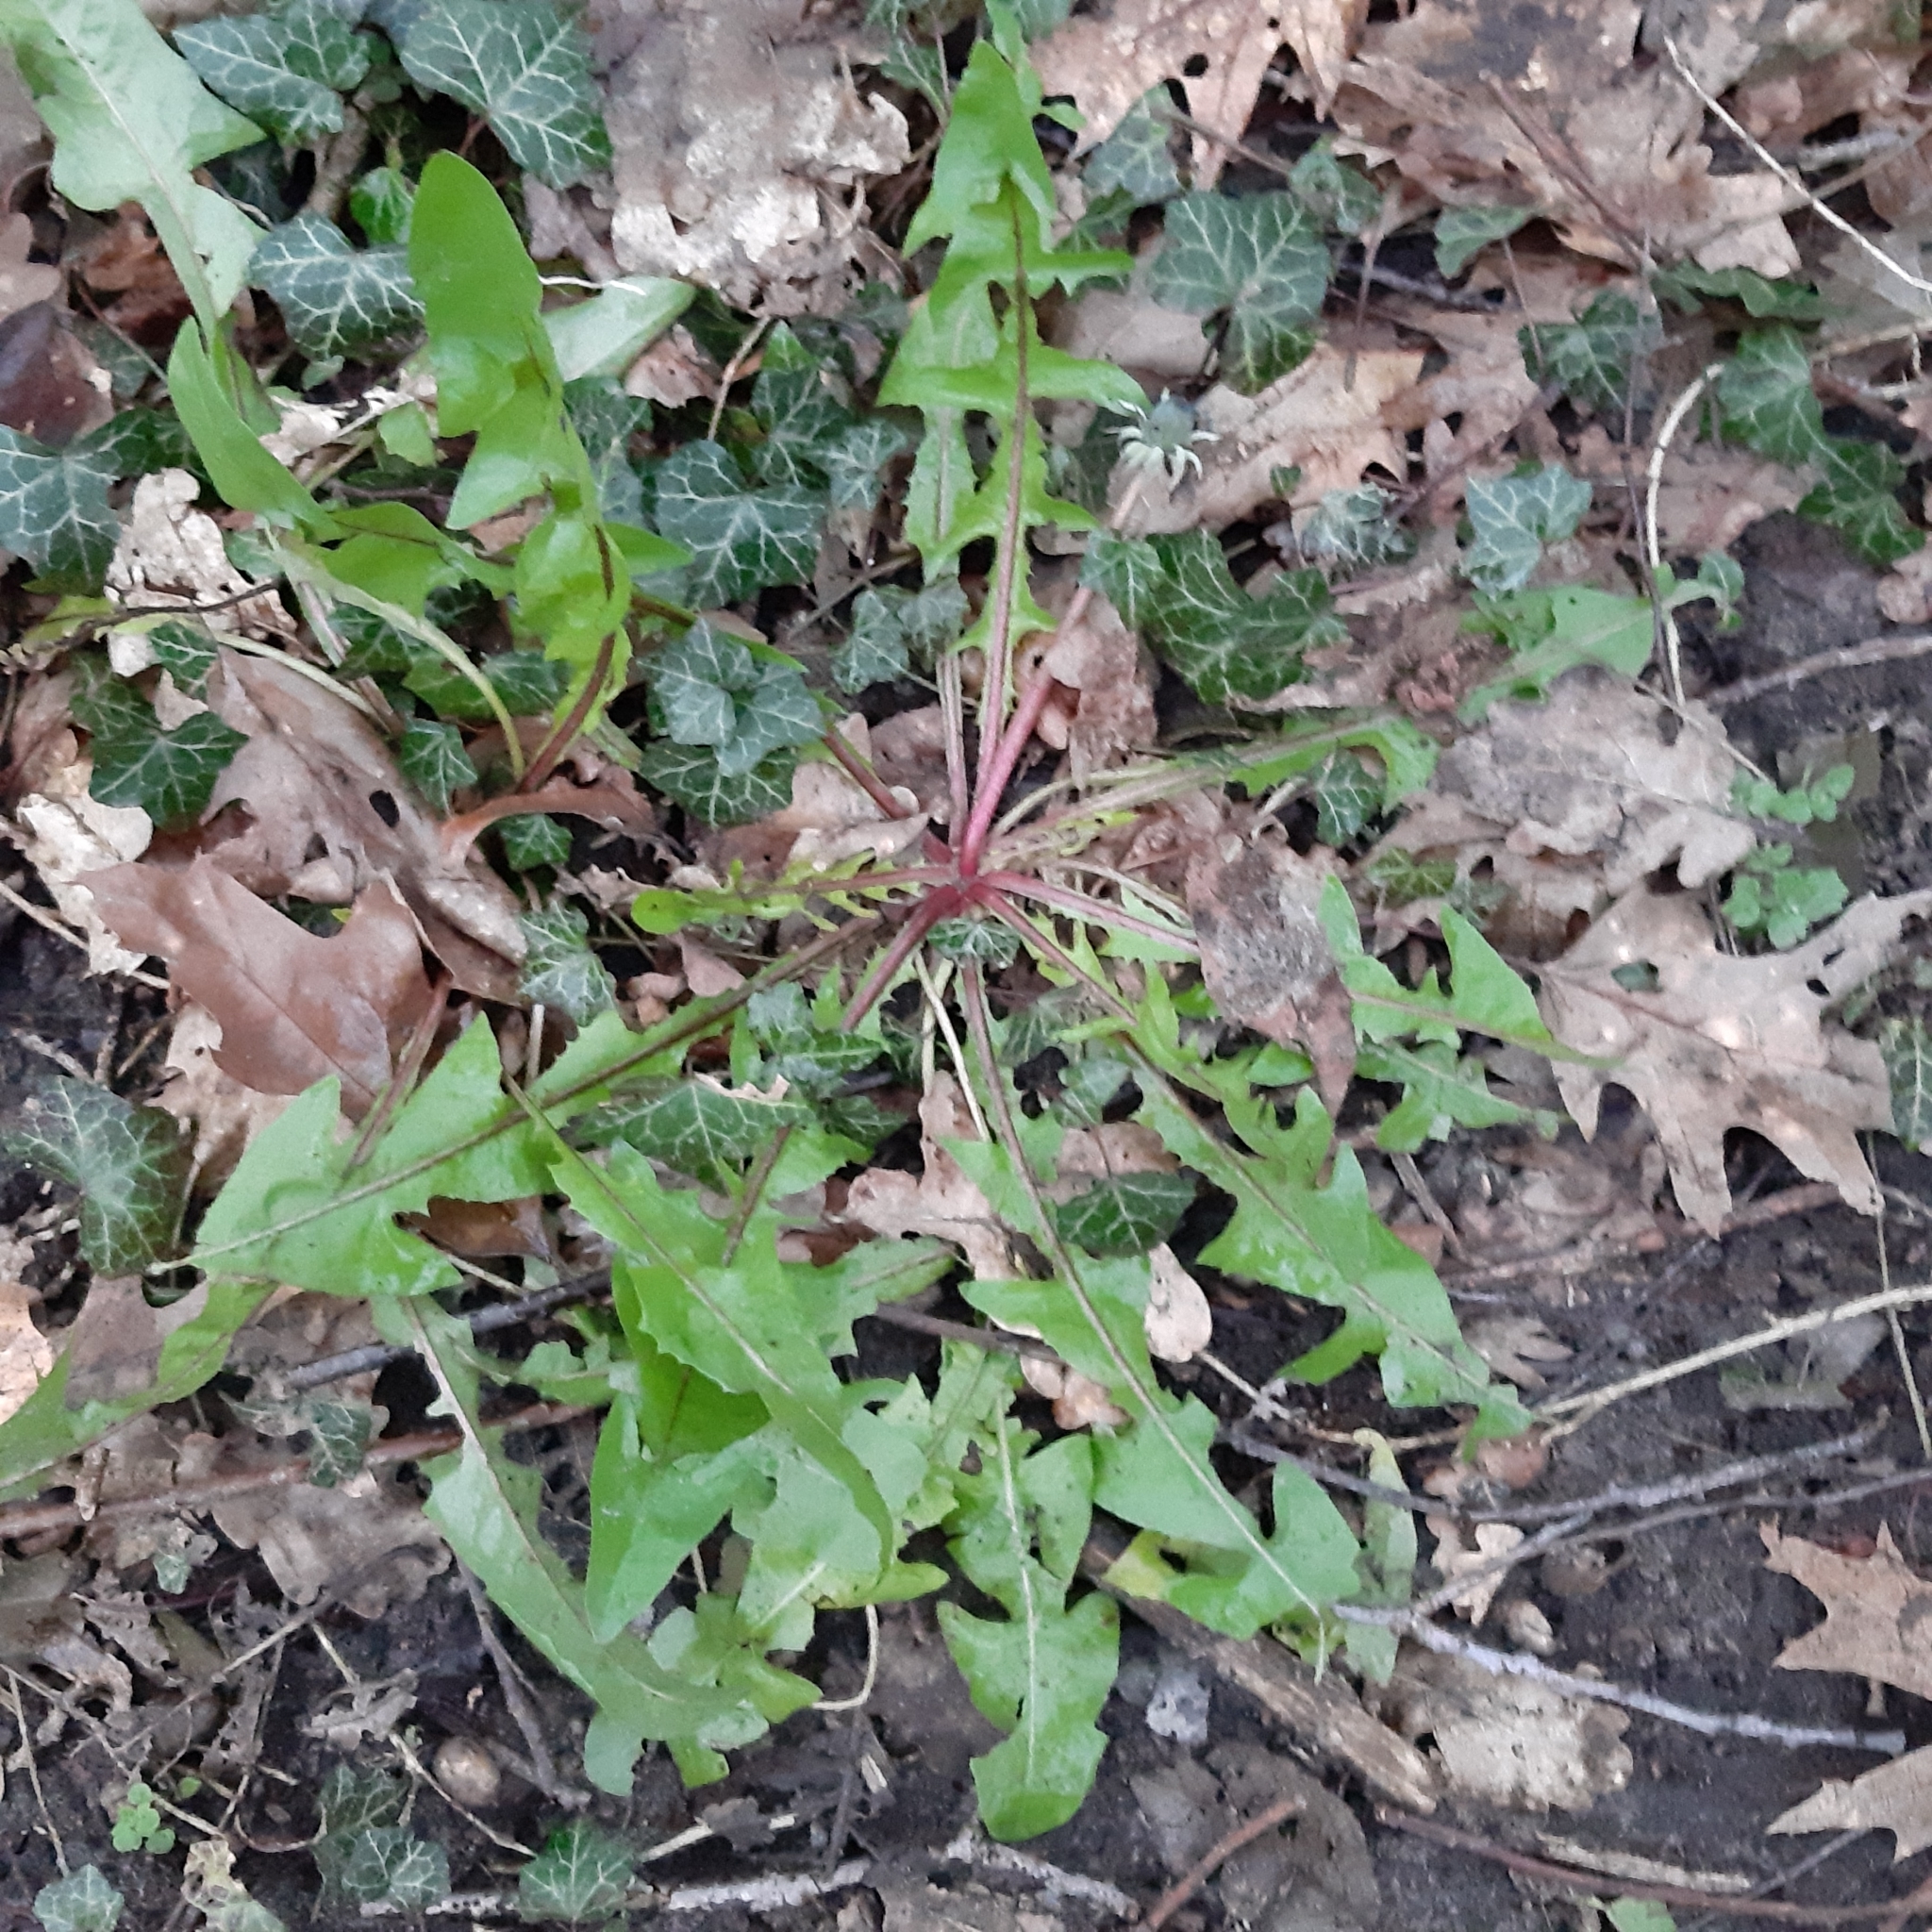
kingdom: Plantae
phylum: Tracheophyta
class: Magnoliopsida
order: Asterales
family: Asteraceae
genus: Taraxacum
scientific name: Taraxacum officinale
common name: Common dandelion
